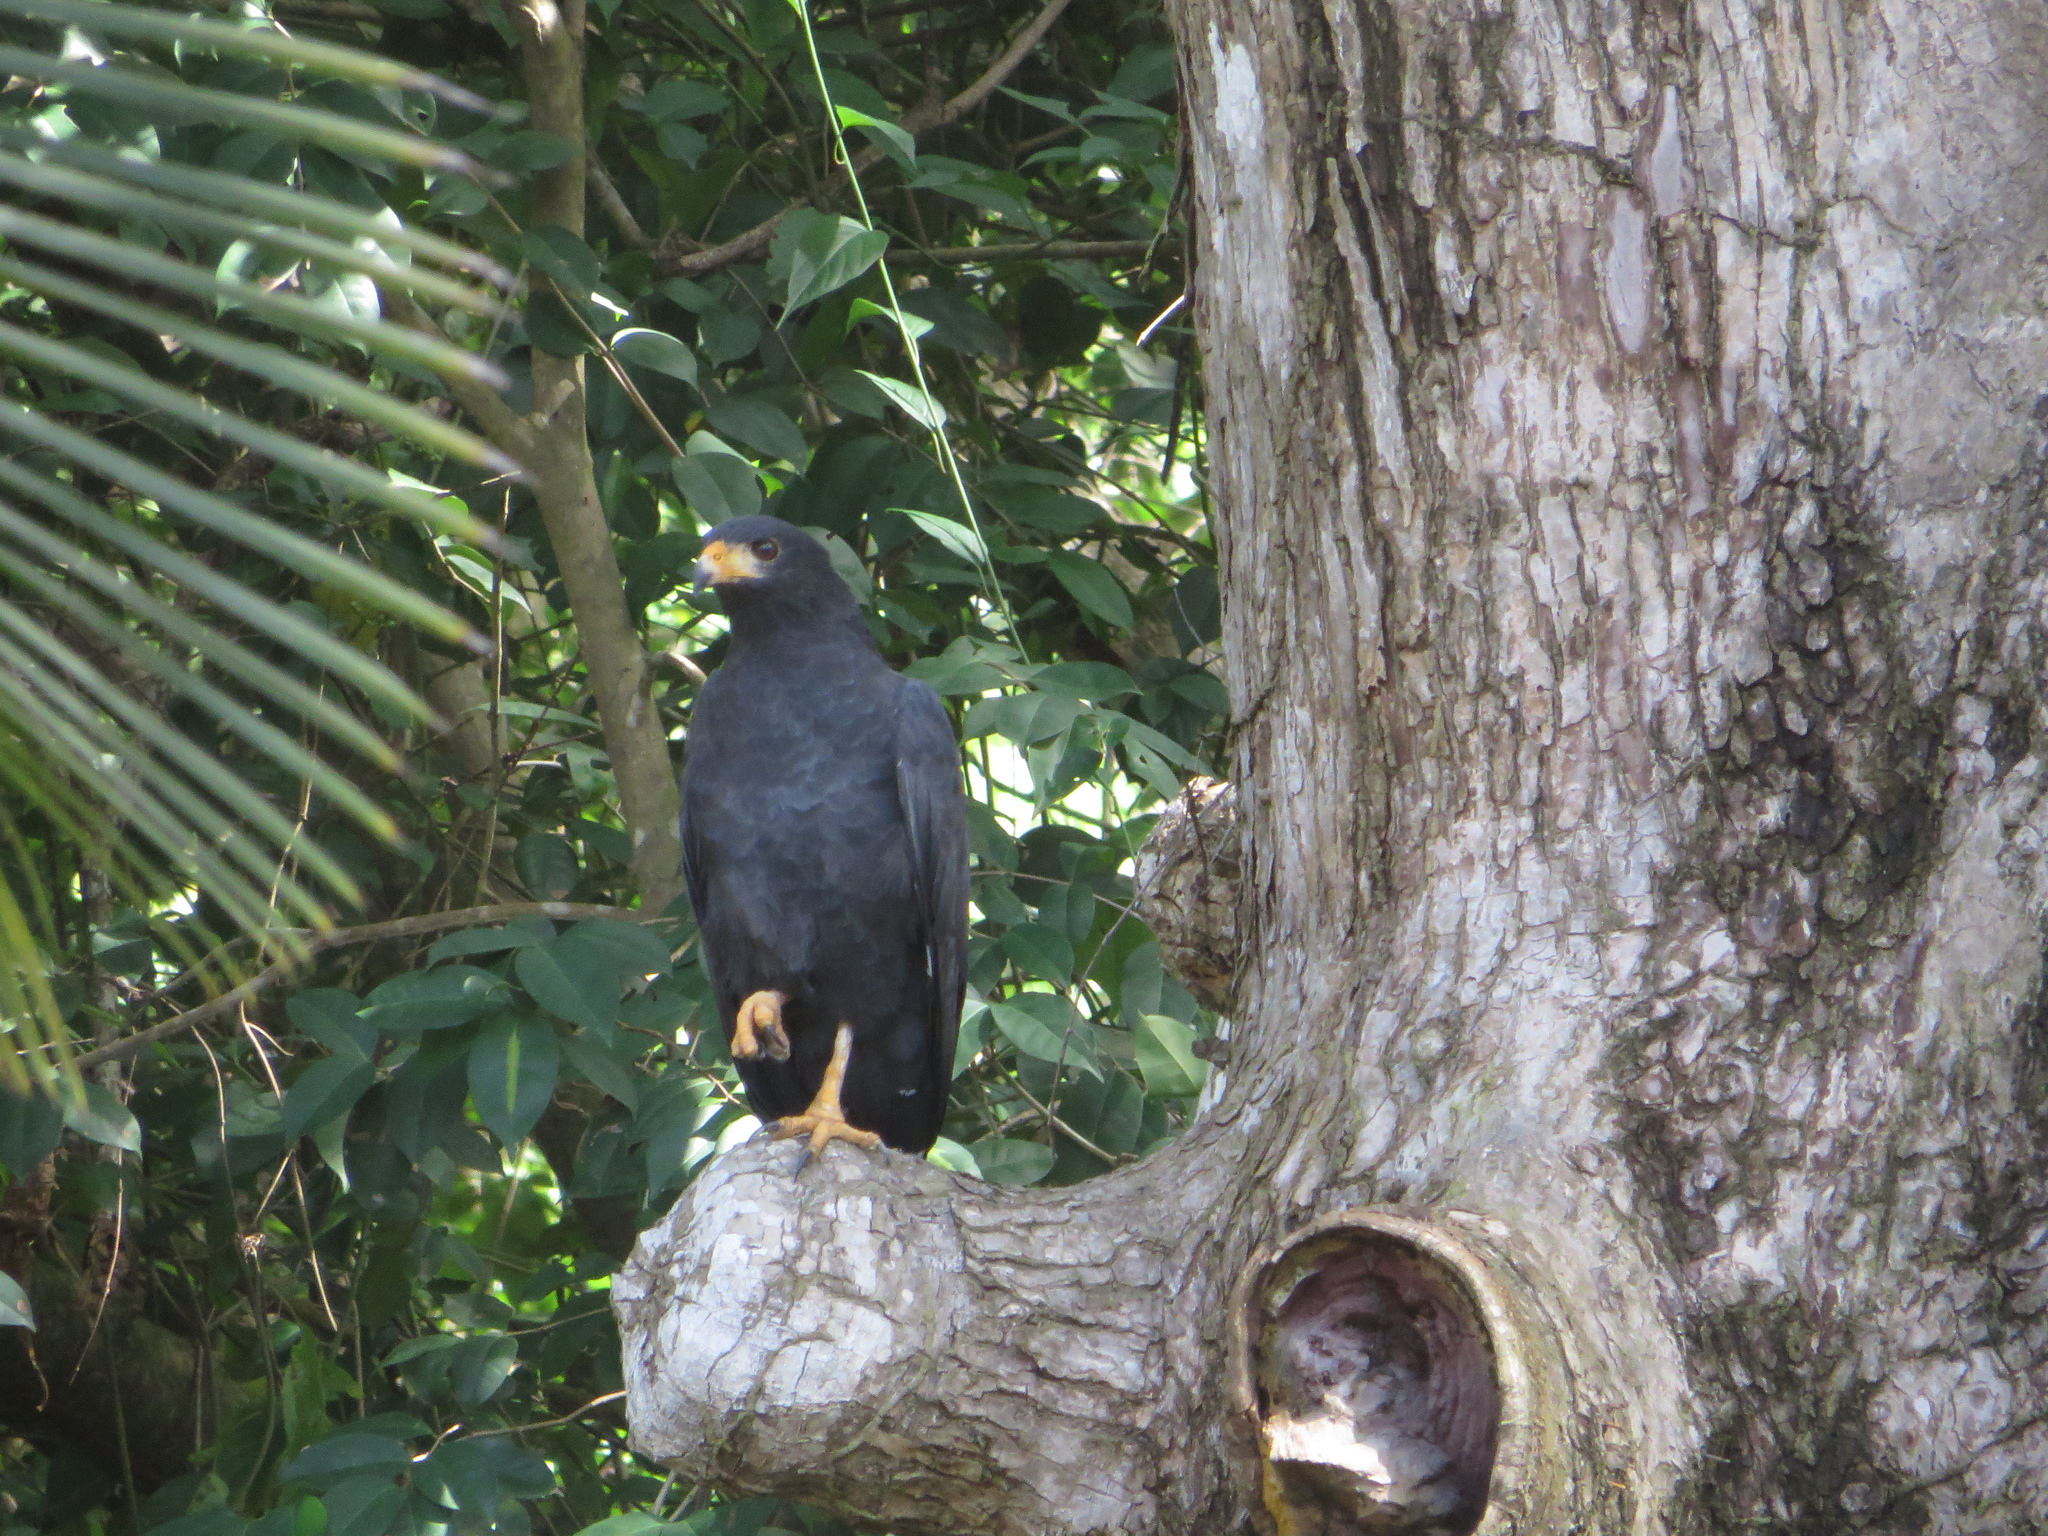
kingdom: Animalia
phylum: Chordata
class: Aves
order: Accipitriformes
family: Accipitridae
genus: Buteogallus
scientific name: Buteogallus anthracinus
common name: Common black hawk
